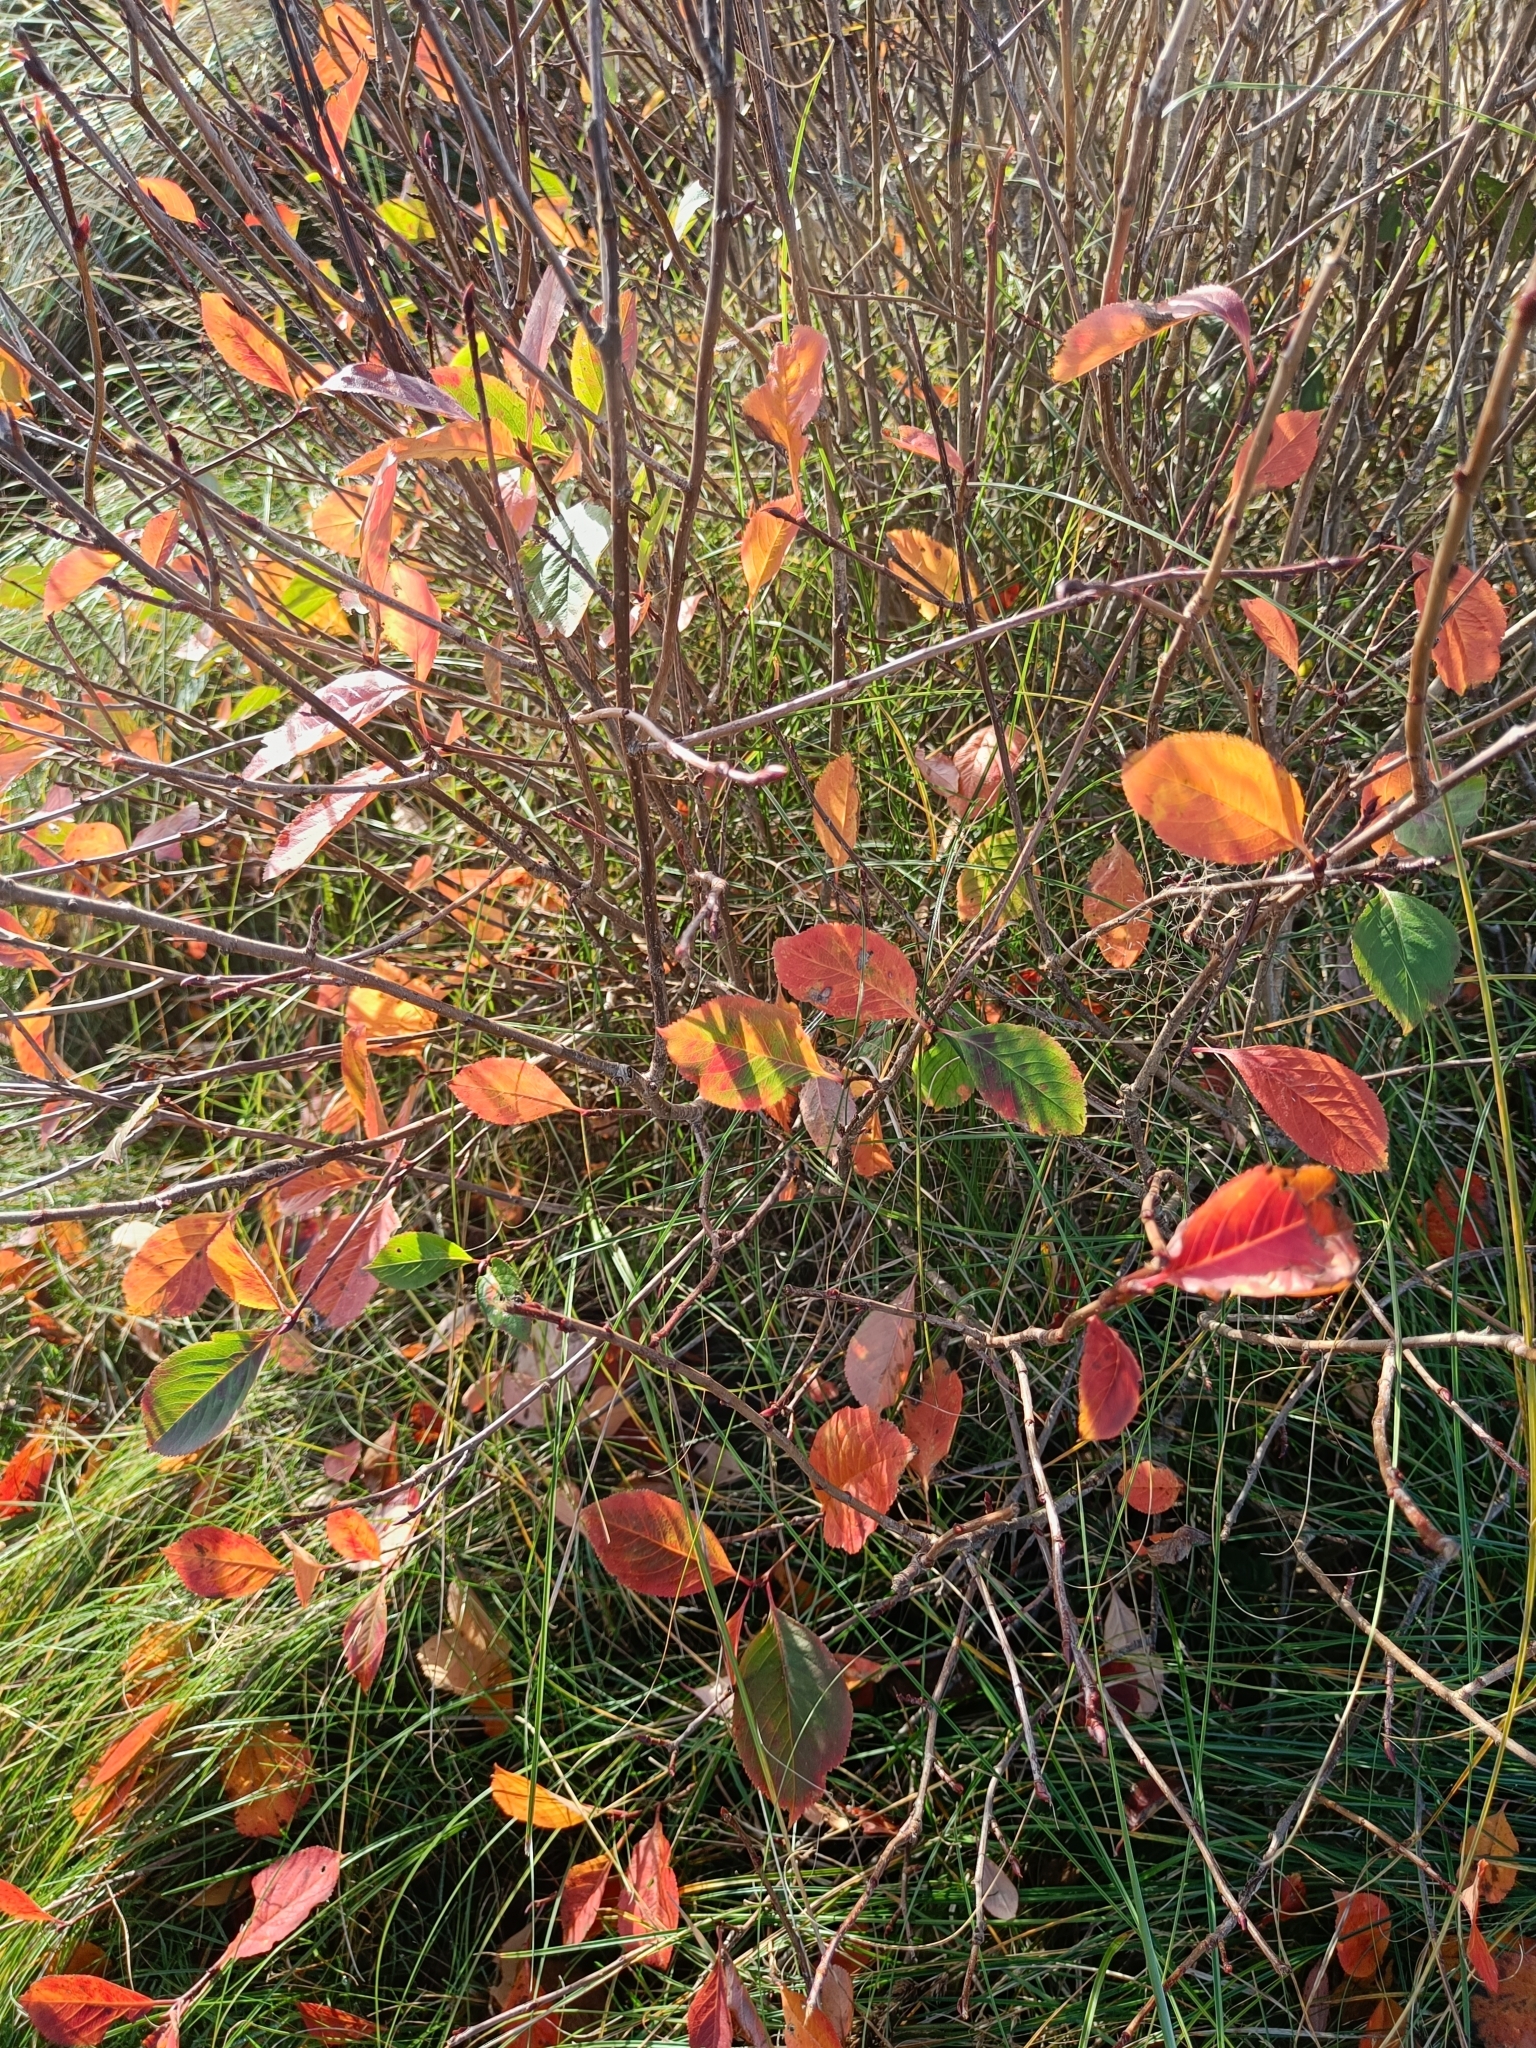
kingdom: Plantae
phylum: Tracheophyta
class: Magnoliopsida
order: Rosales
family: Rosaceae
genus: Aronia
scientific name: Aronia melanocarpa
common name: Black chokeberry
